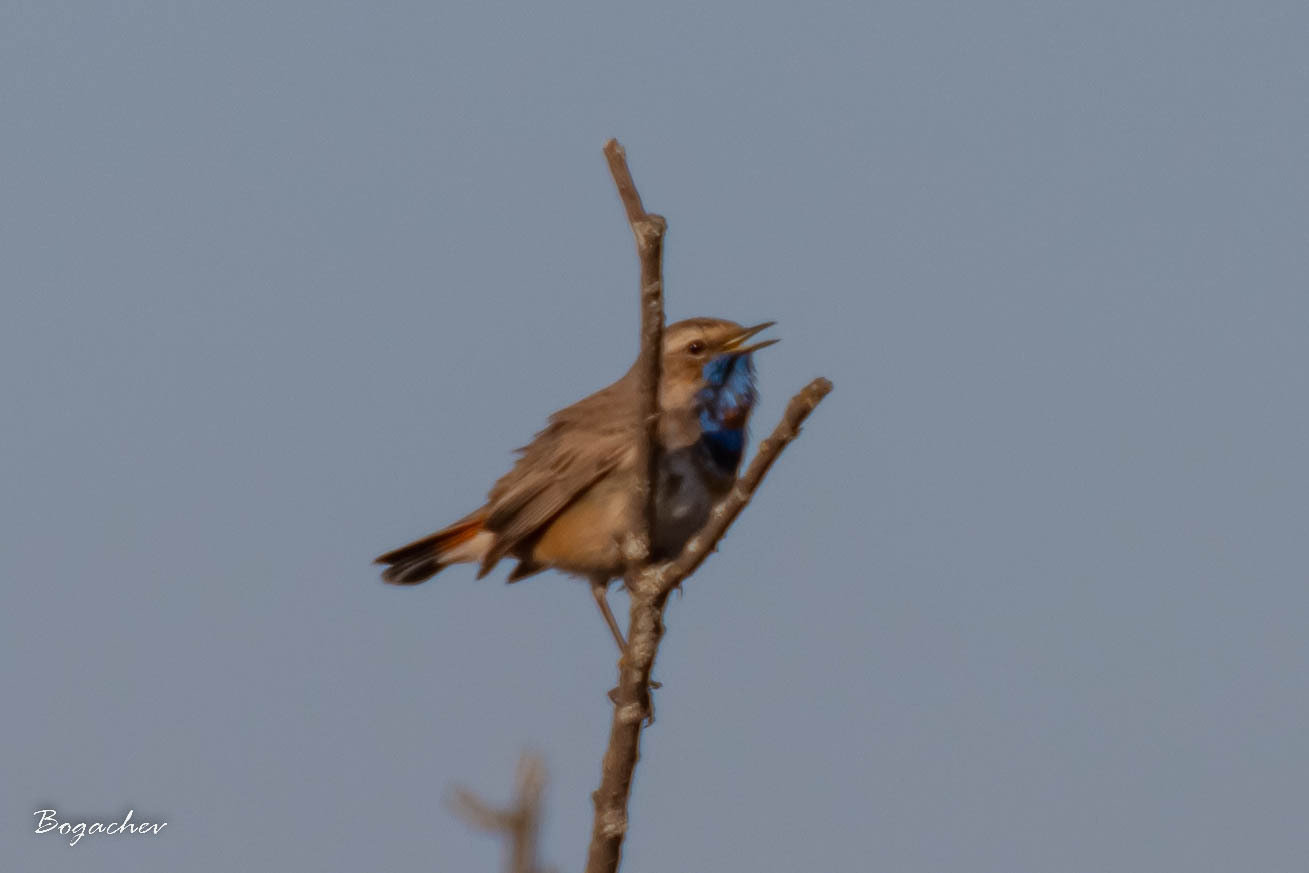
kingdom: Animalia
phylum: Chordata
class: Aves
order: Passeriformes
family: Muscicapidae
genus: Luscinia
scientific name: Luscinia svecica
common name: Bluethroat
